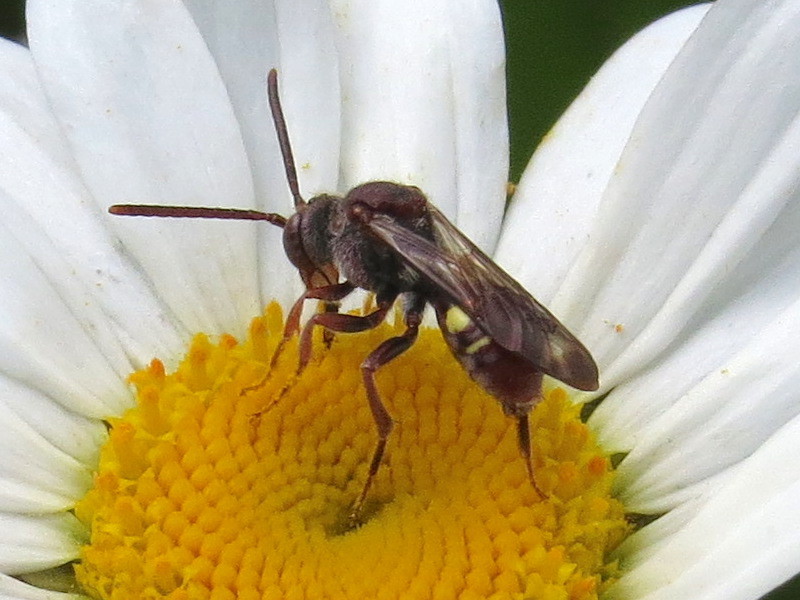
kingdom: Animalia
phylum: Arthropoda
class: Insecta
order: Hymenoptera
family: Apidae
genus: Nomada
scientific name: Nomada
